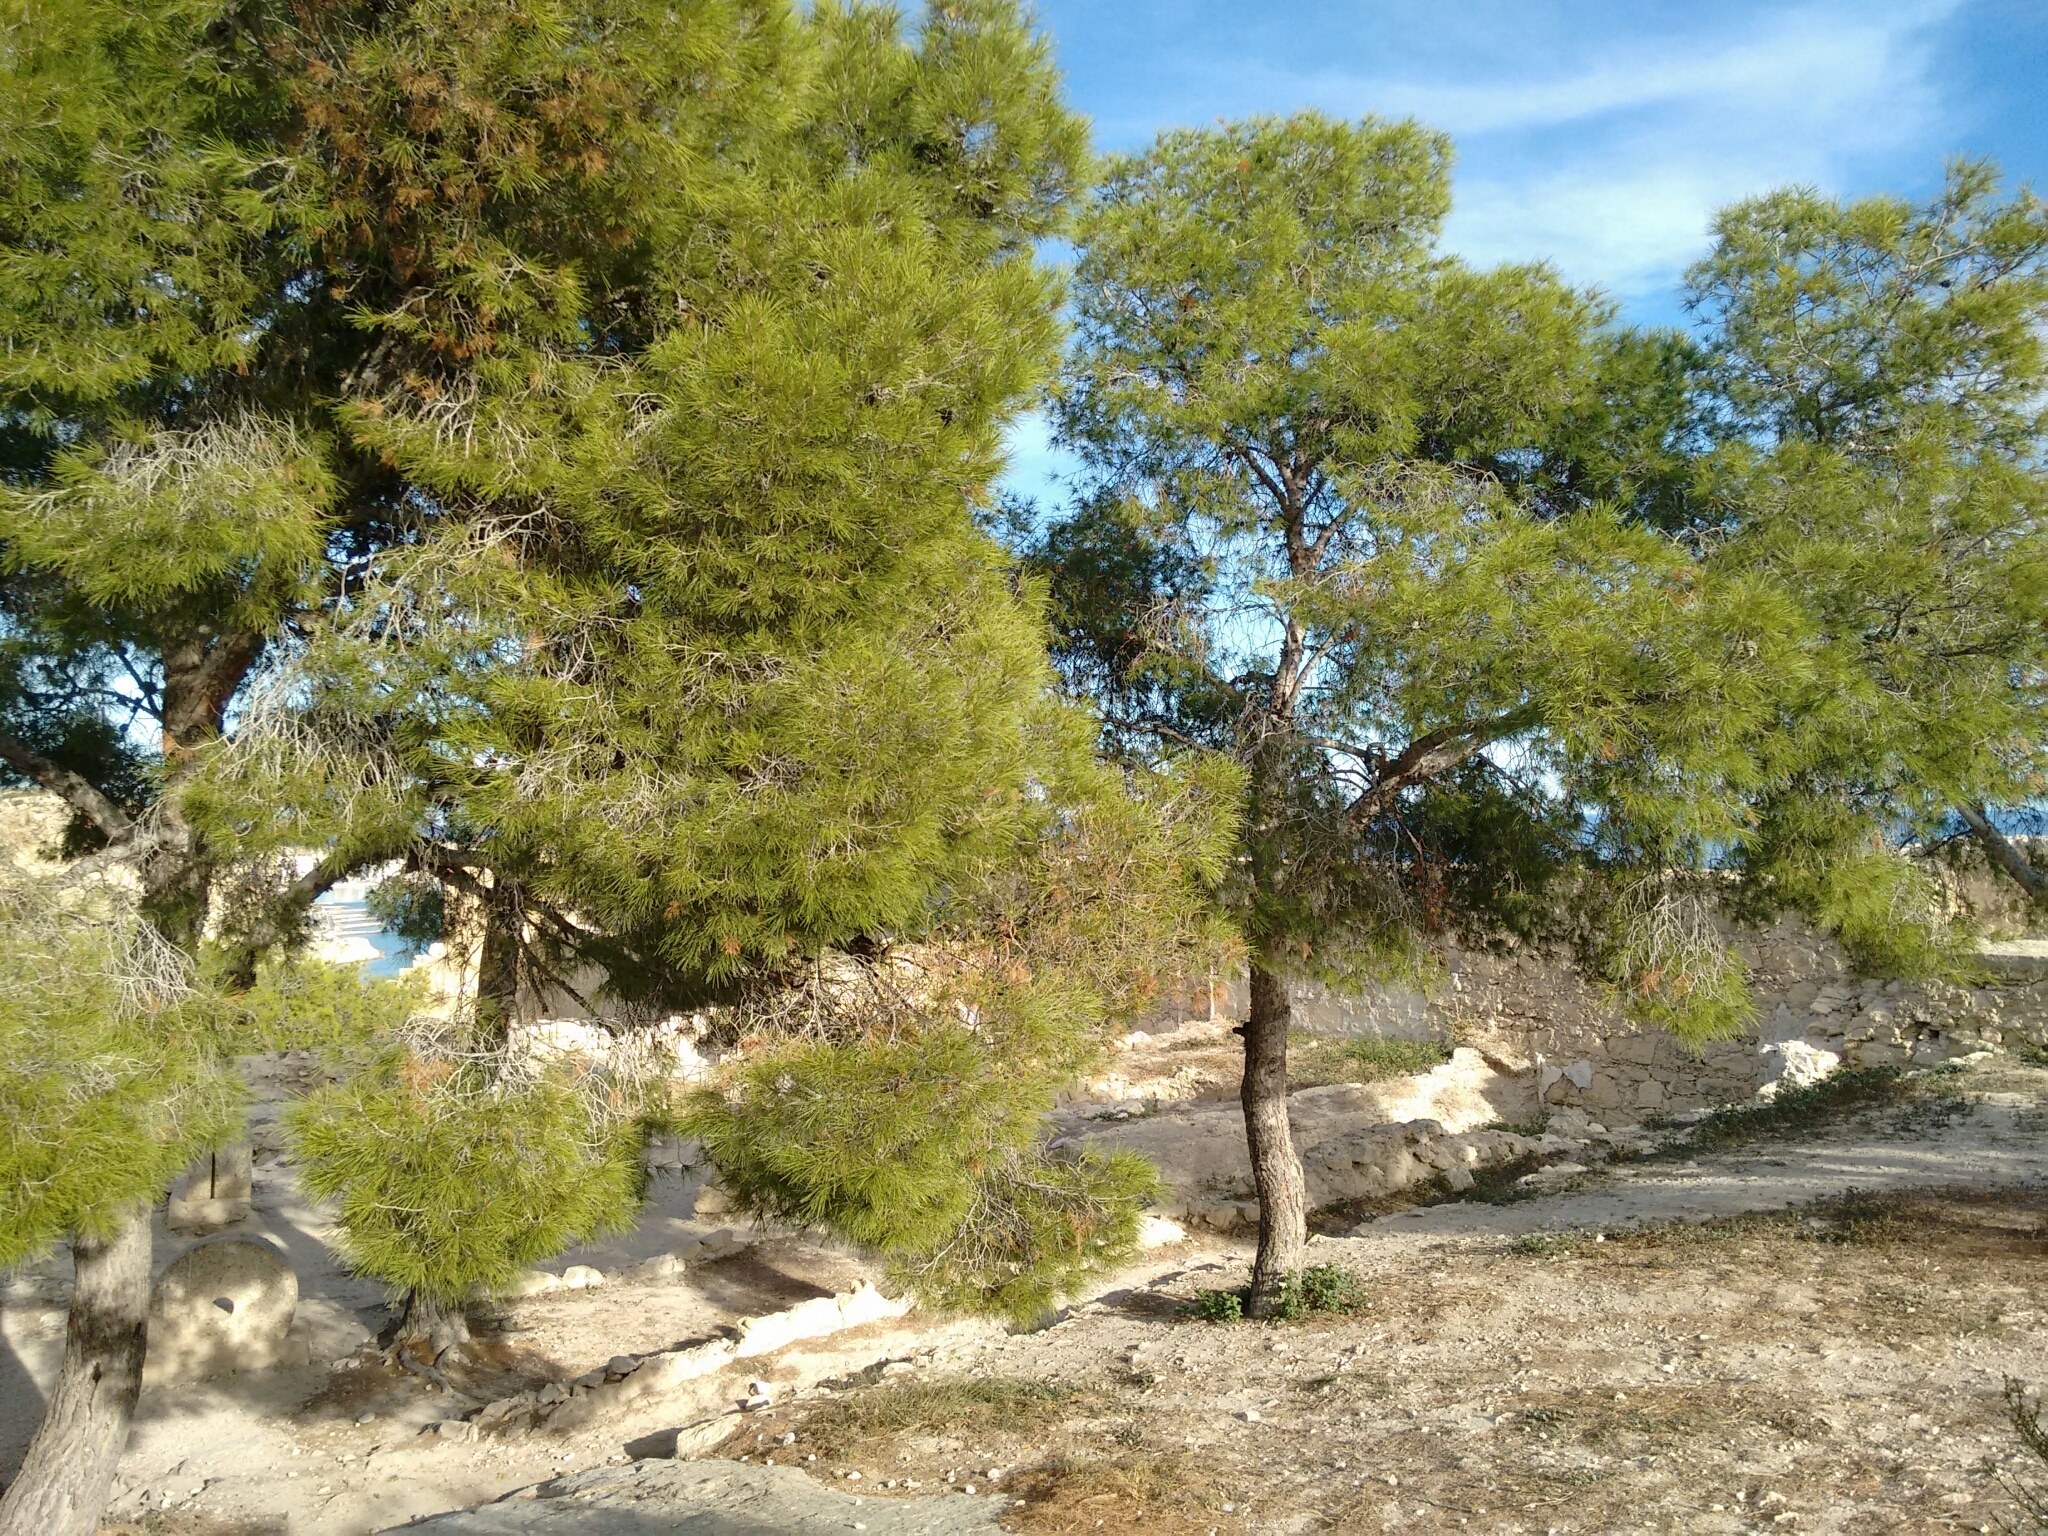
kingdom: Plantae
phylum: Tracheophyta
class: Pinopsida
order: Pinales
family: Pinaceae
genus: Pinus
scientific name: Pinus halepensis
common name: Aleppo pine
